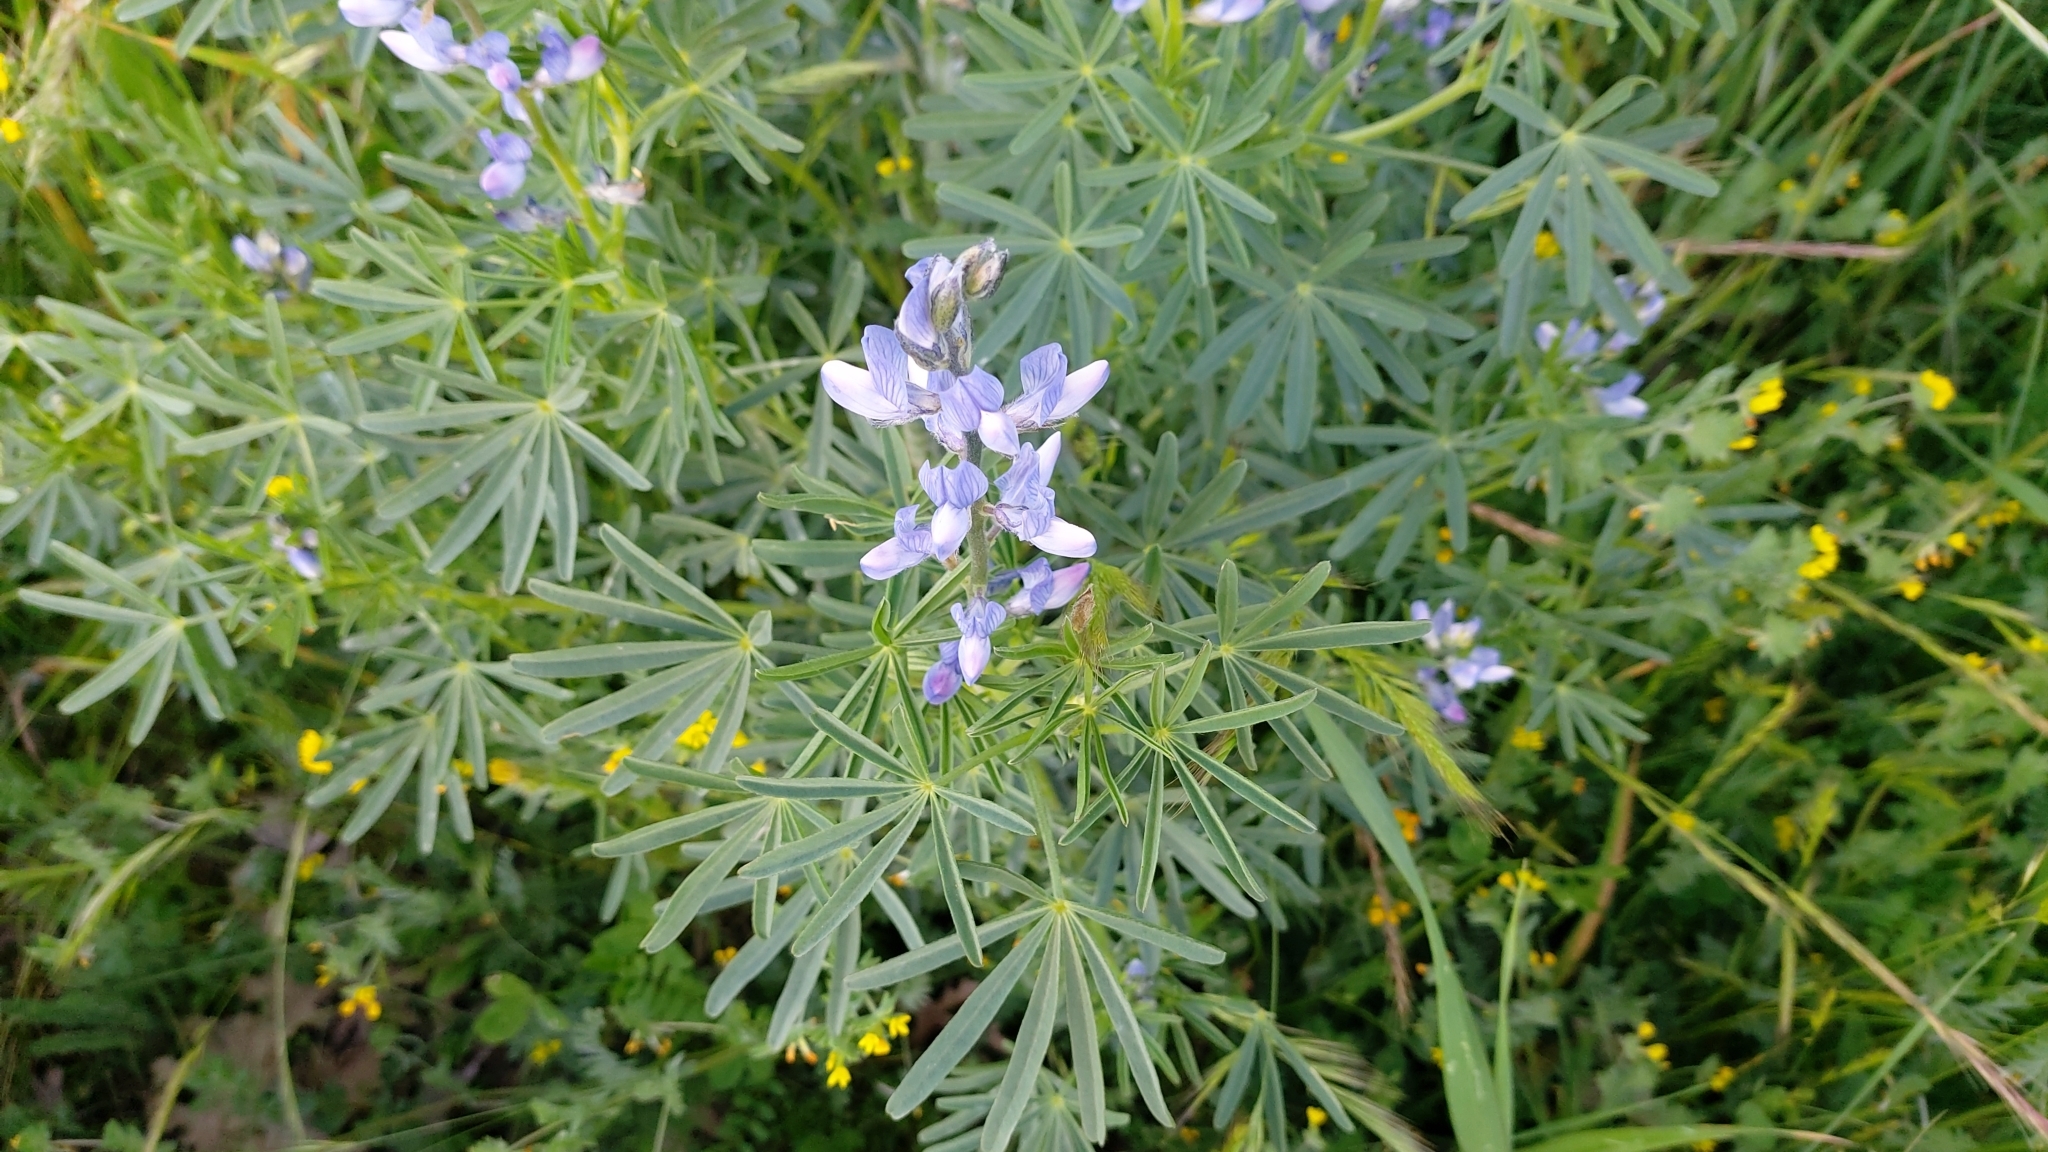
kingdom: Plantae
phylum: Tracheophyta
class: Magnoliopsida
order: Fabales
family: Fabaceae
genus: Lupinus
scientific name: Lupinus angustifolius
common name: Narrow-leaved lupin
